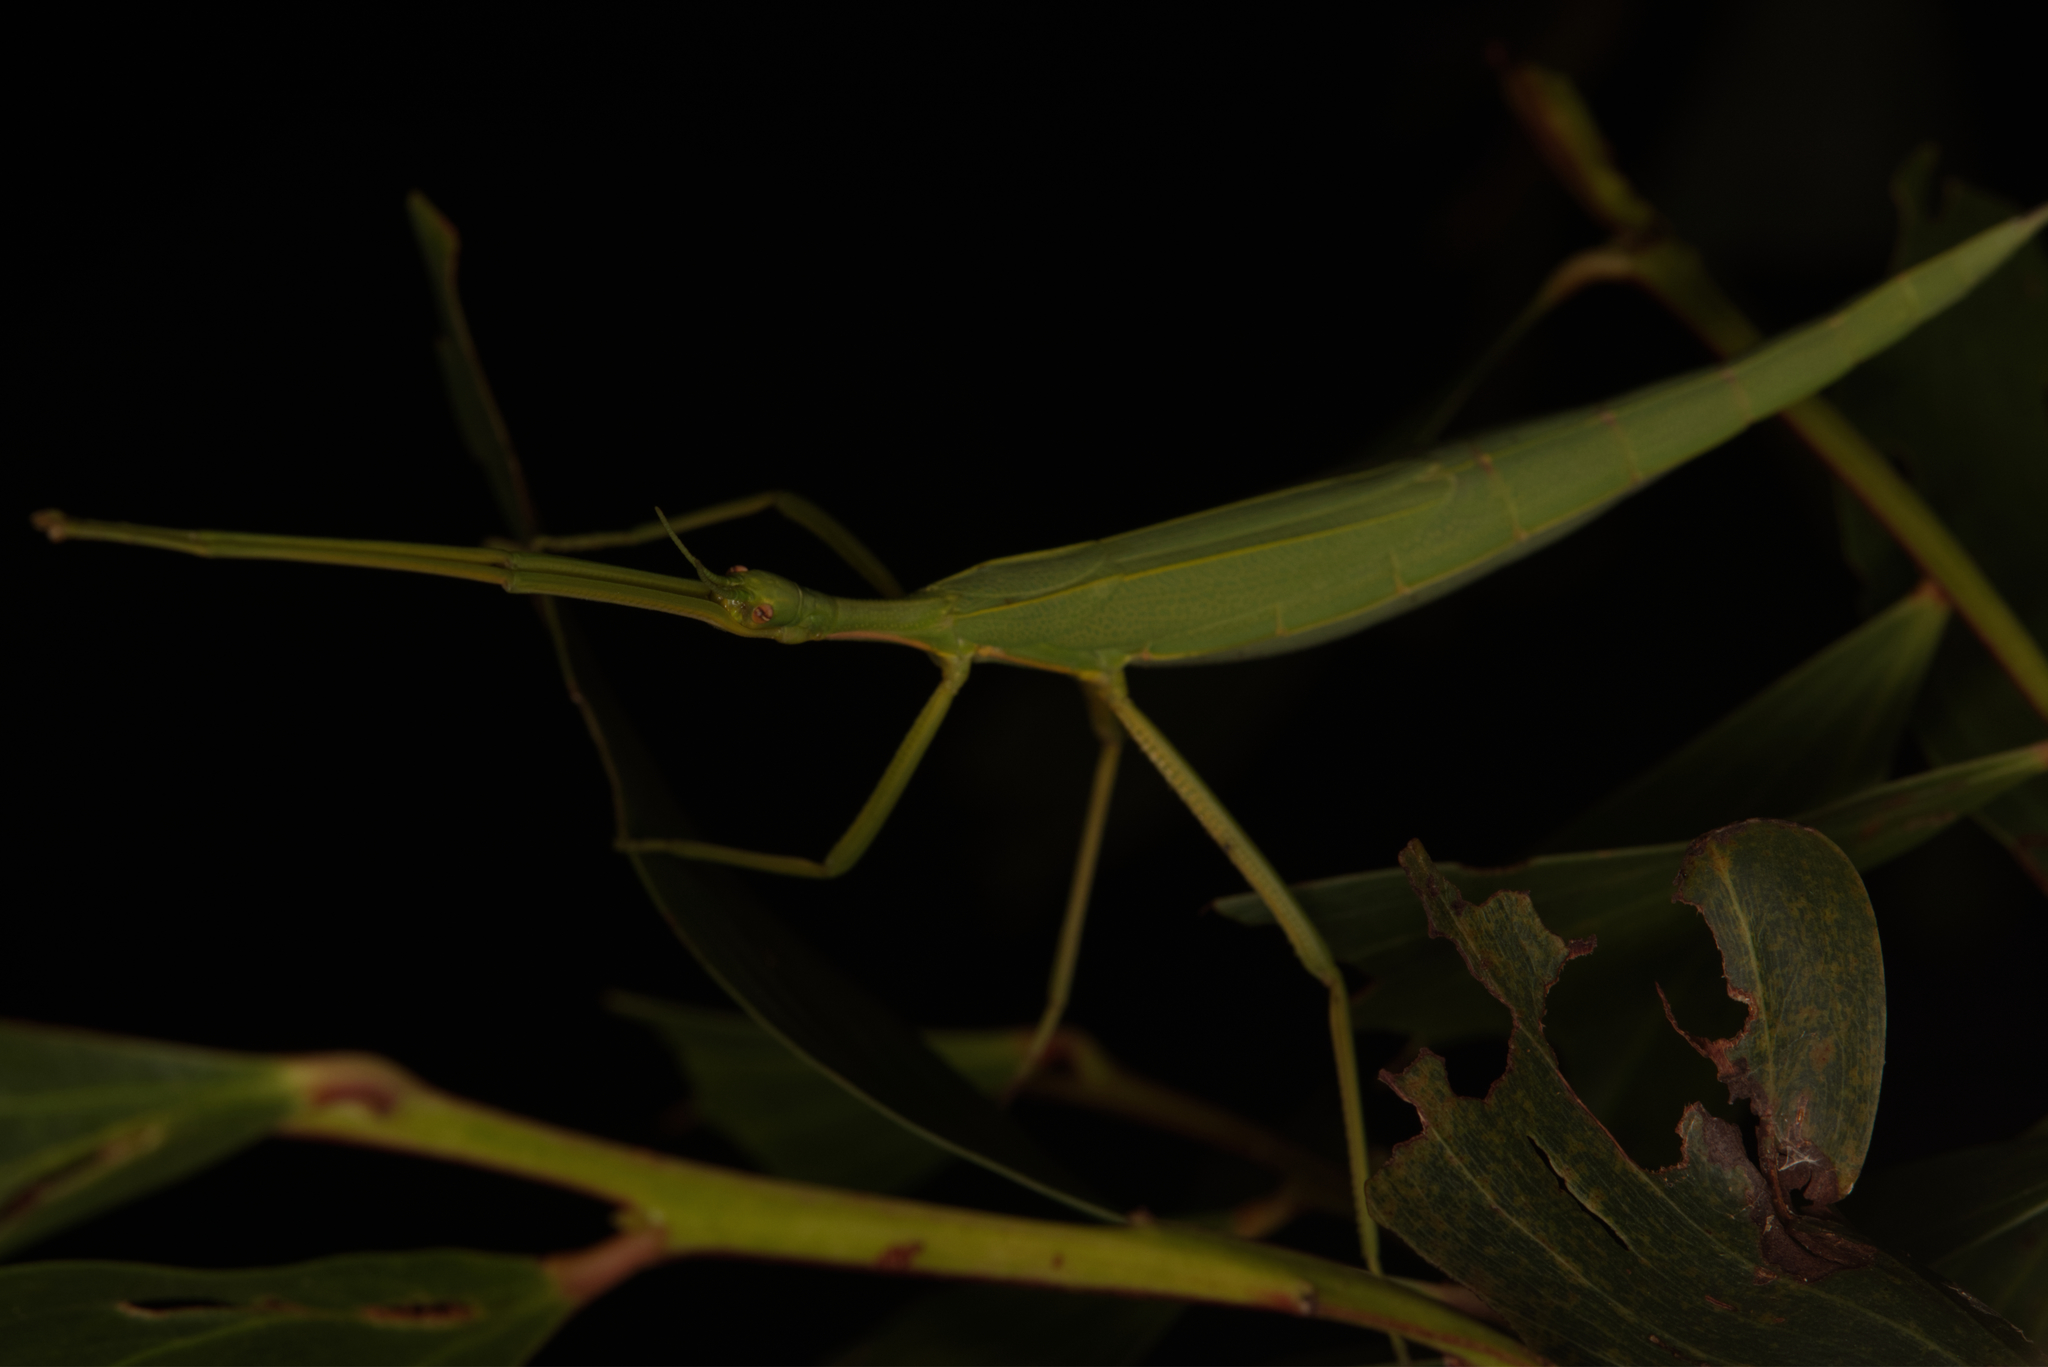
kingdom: Animalia
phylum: Arthropoda
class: Insecta
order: Phasmida
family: Phasmatidae
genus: Didymuria
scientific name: Didymuria violescens
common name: Spur-legged stick-insect
